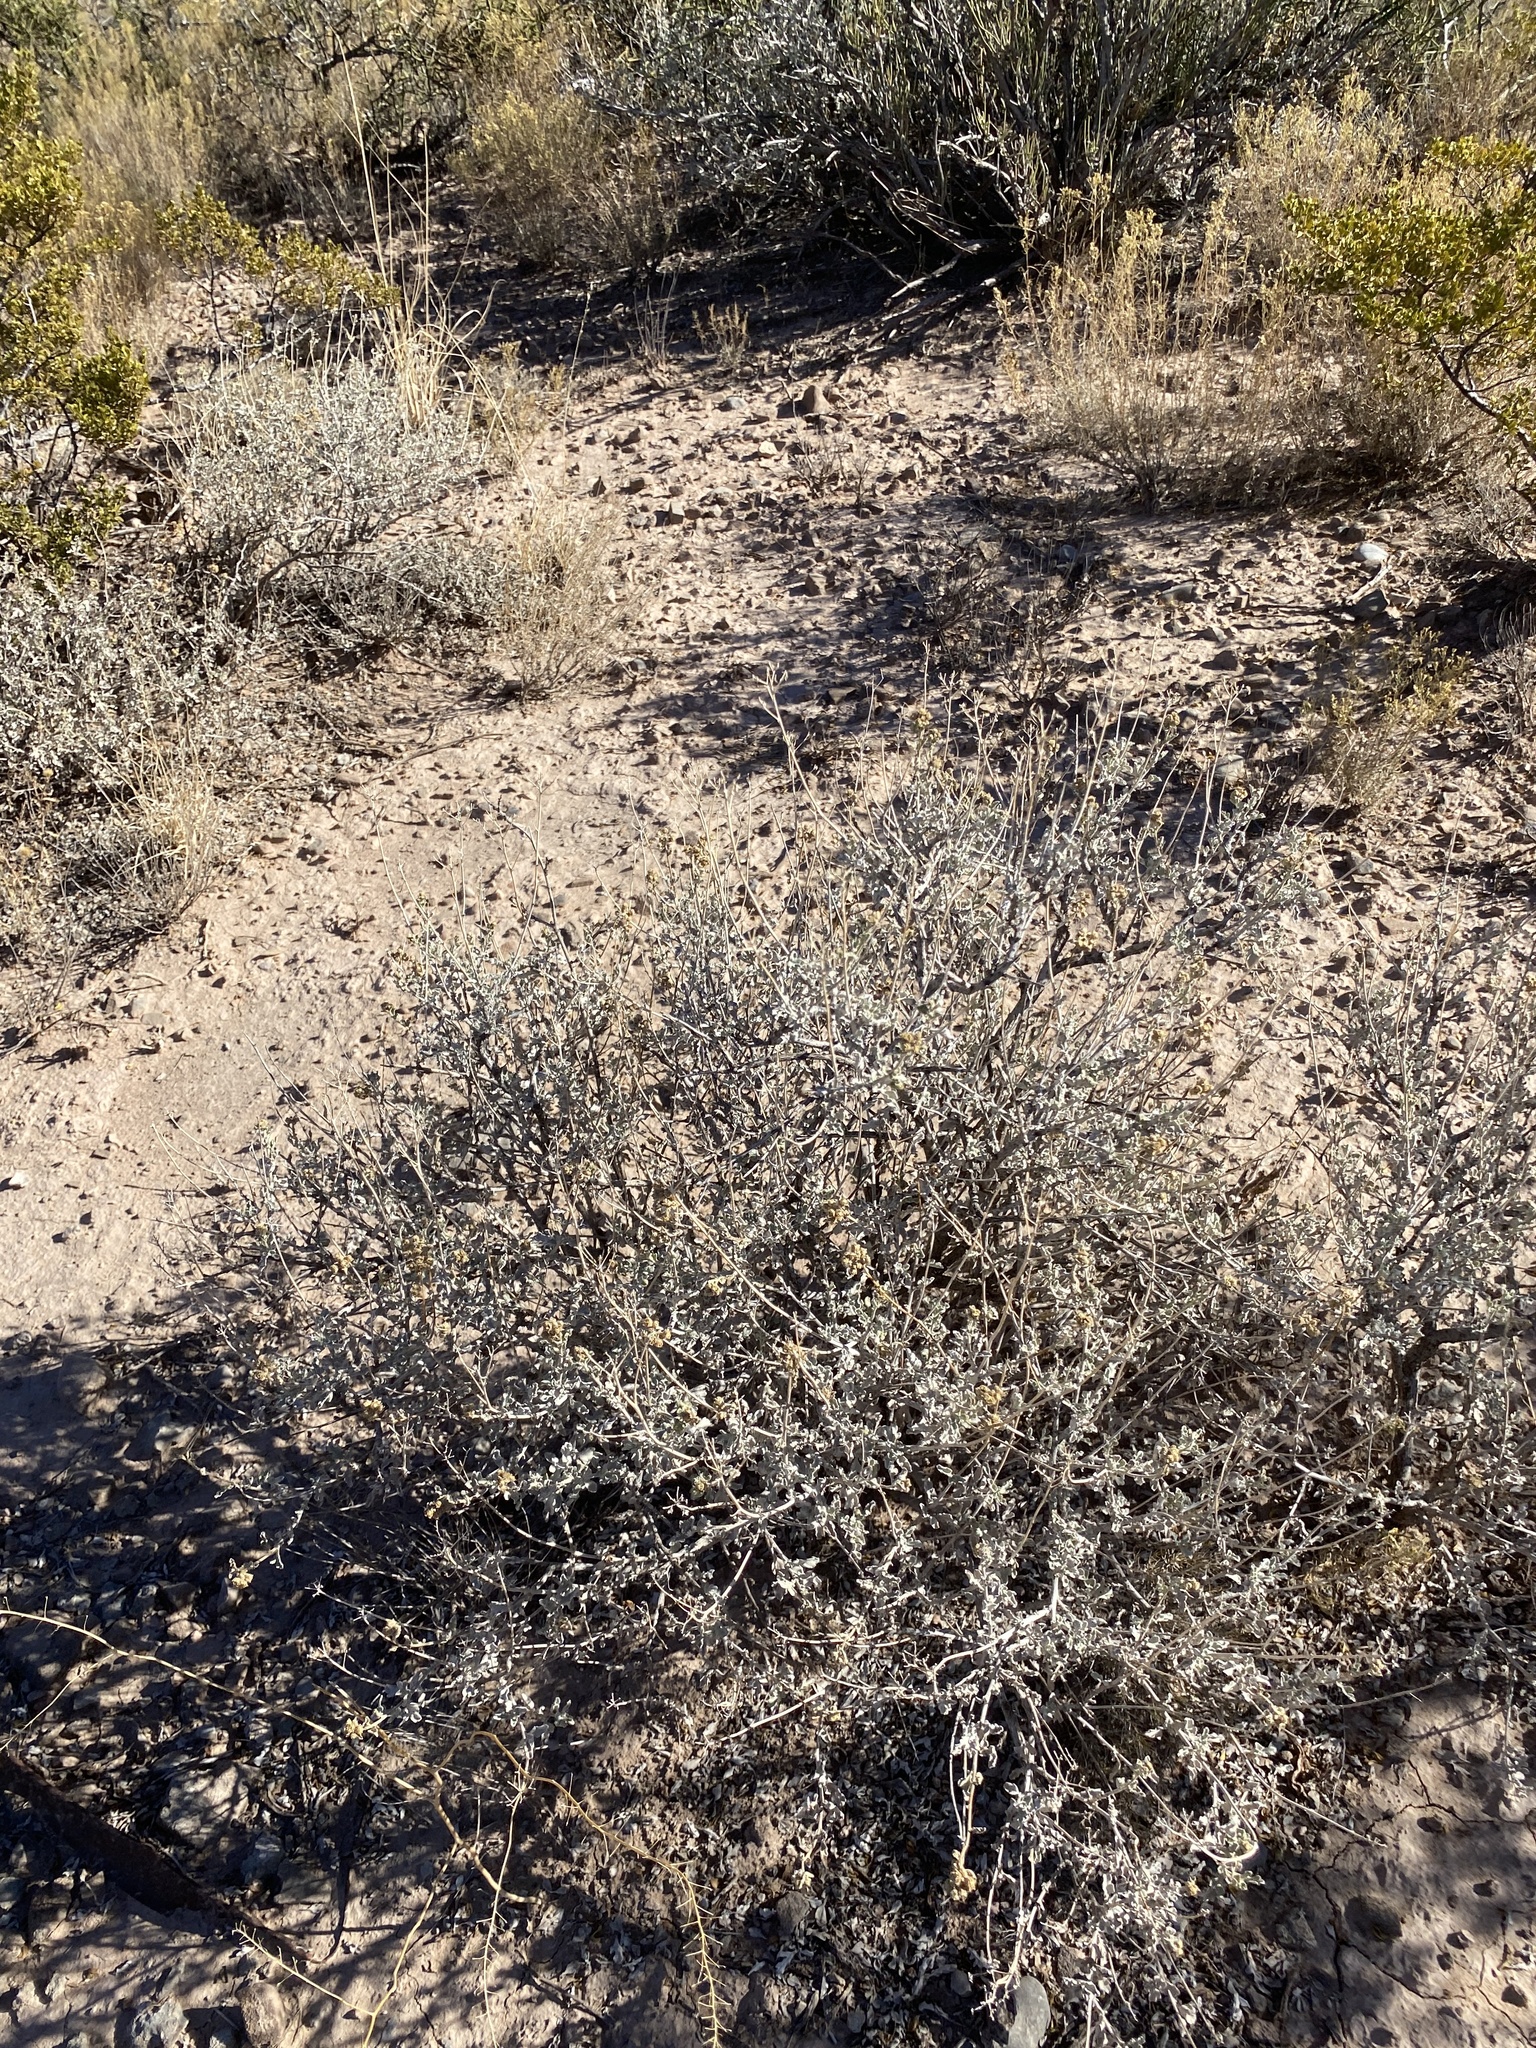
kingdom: Plantae
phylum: Tracheophyta
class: Magnoliopsida
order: Asterales
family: Asteraceae
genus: Parthenium
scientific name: Parthenium incanum
